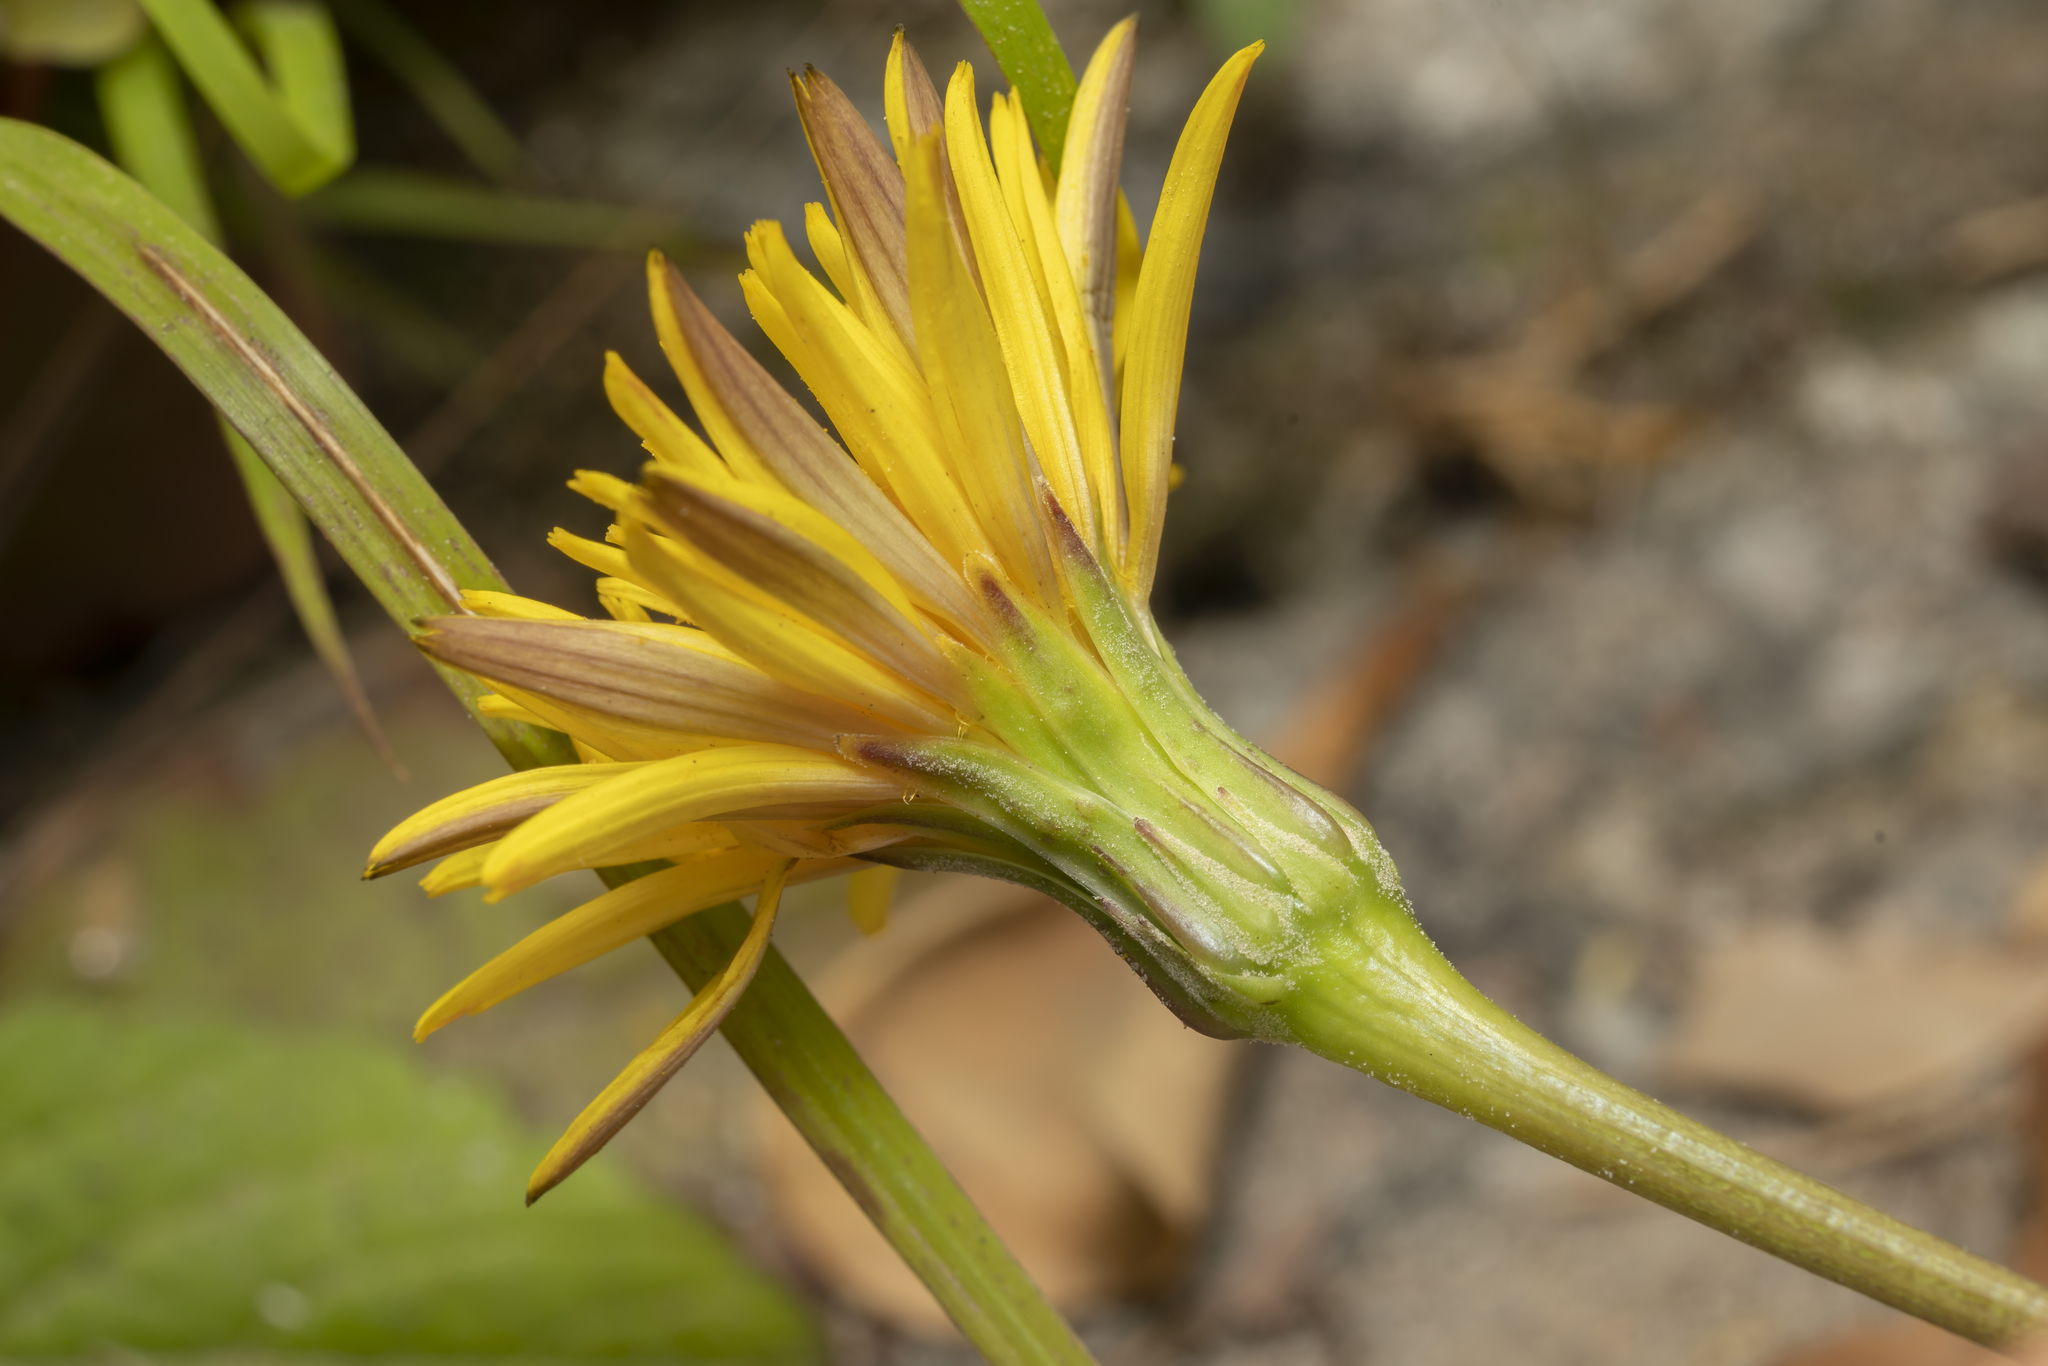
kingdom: Plantae
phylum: Tracheophyta
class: Magnoliopsida
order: Asterales
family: Asteraceae
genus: Hyoseris
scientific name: Hyoseris radiata
